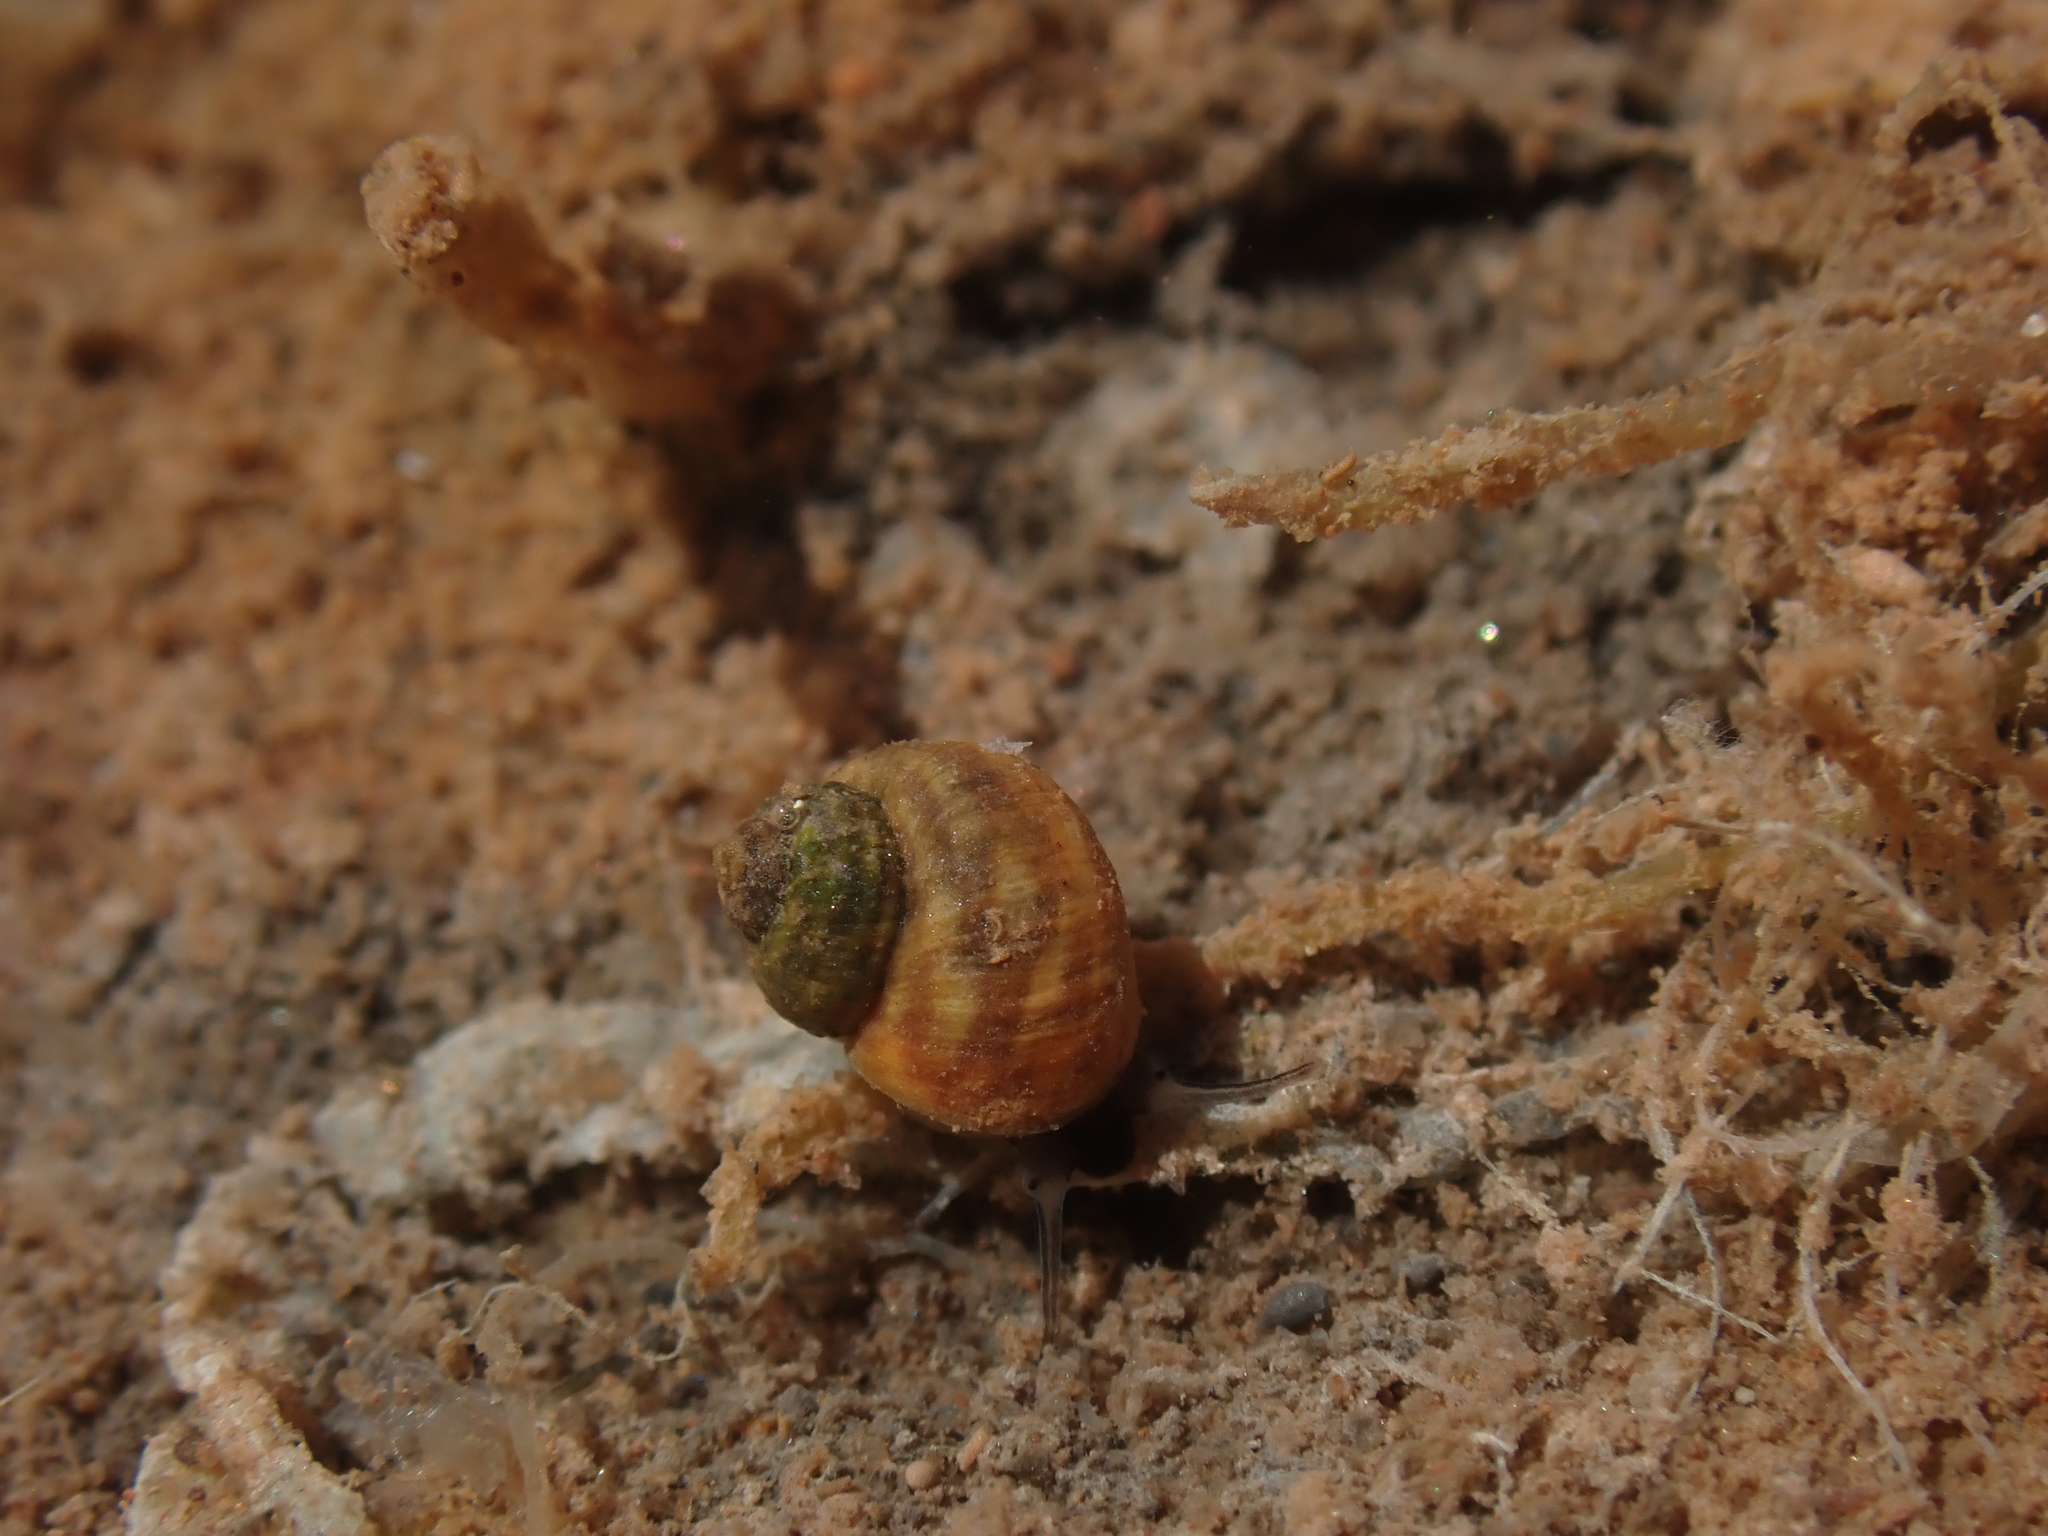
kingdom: Animalia
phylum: Mollusca
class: Gastropoda
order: Littorinimorpha
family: Littorinidae
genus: Littorina
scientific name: Littorina saxatilis
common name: Black-lined periwinkle
